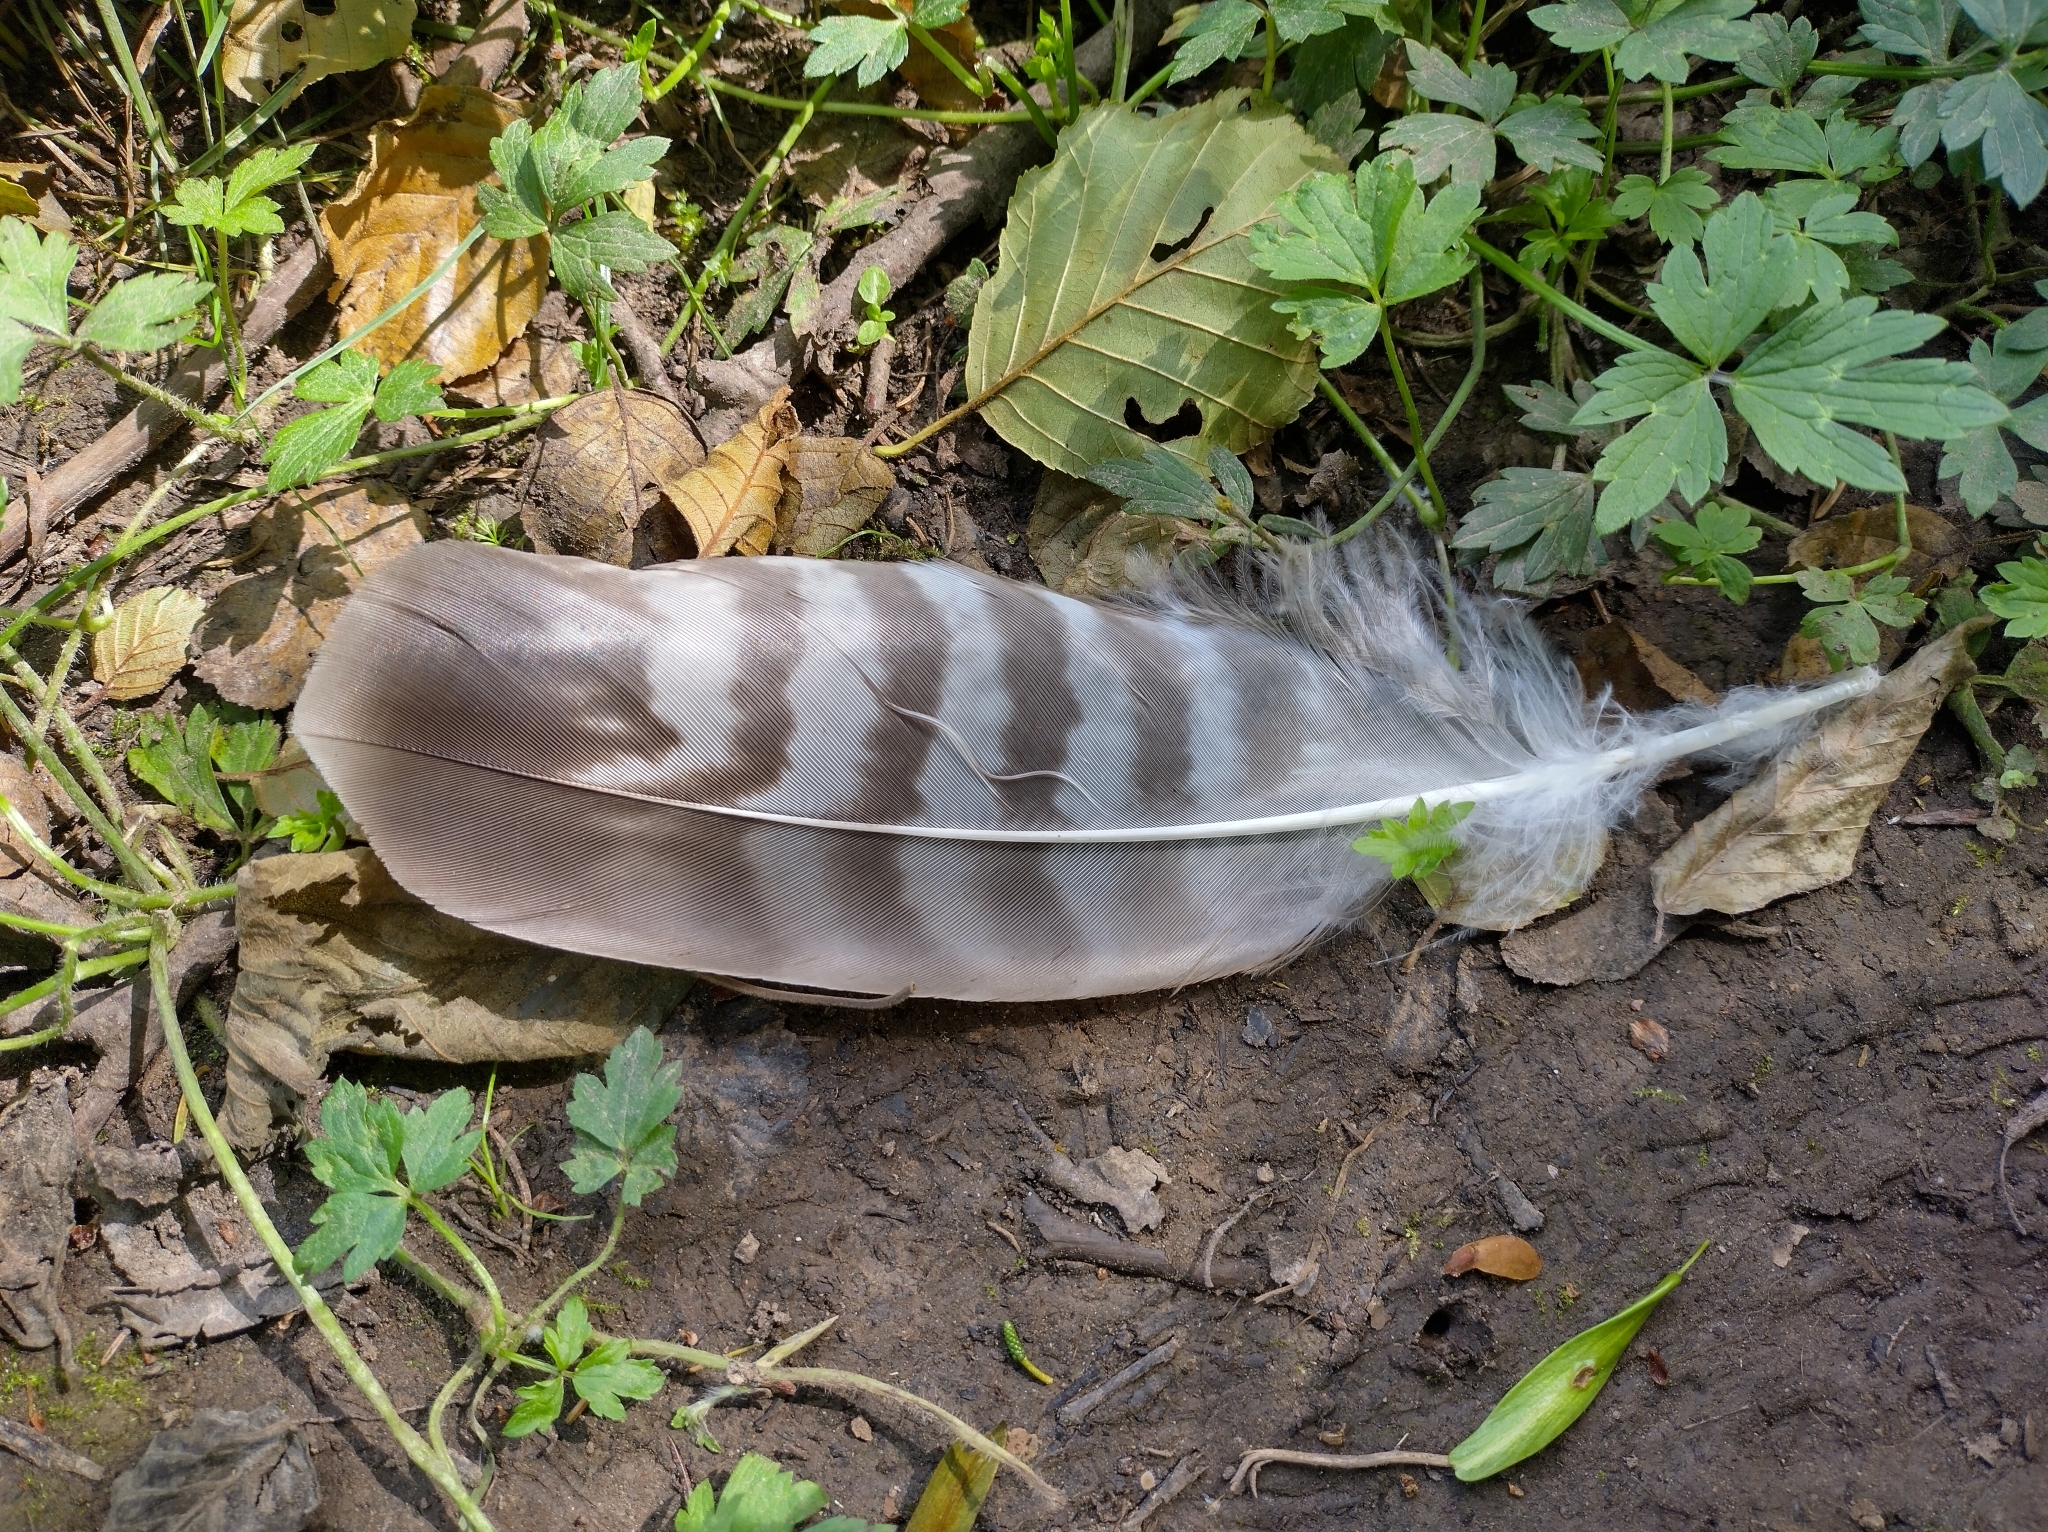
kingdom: Animalia
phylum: Chordata
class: Aves
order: Accipitriformes
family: Accipitridae
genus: Buteo
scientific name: Buteo buteo
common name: Common buzzard
